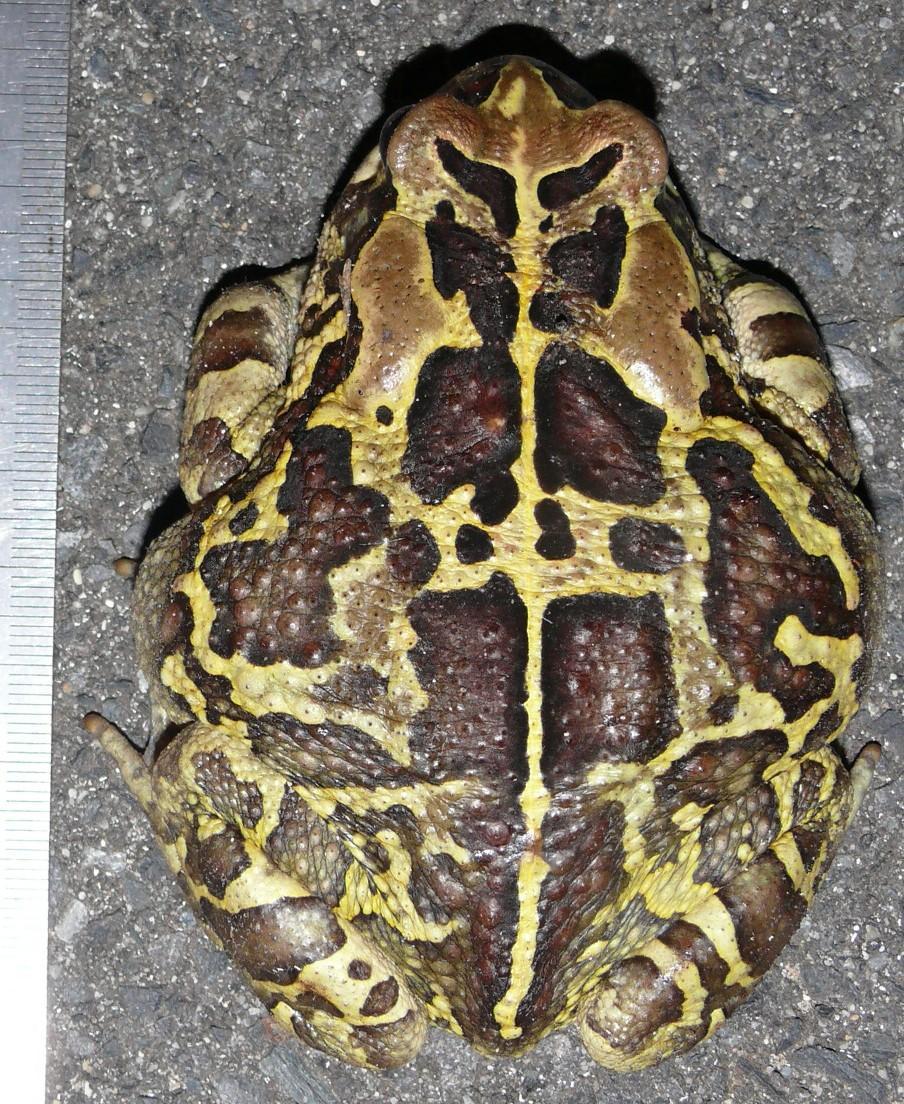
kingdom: Animalia
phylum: Chordata
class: Amphibia
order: Anura
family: Bufonidae
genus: Sclerophrys
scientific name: Sclerophrys pantherina
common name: Panther toad
